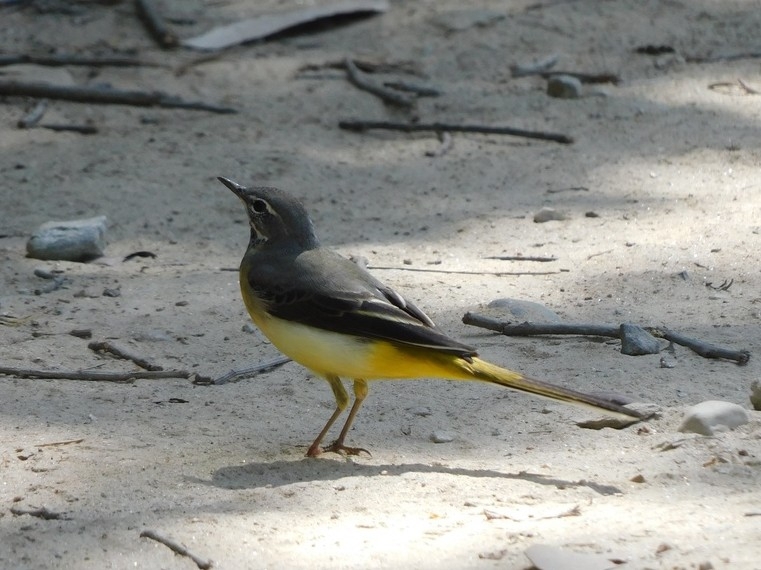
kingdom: Animalia
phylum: Chordata
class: Aves
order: Passeriformes
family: Motacillidae
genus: Motacilla
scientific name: Motacilla cinerea
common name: Grey wagtail
